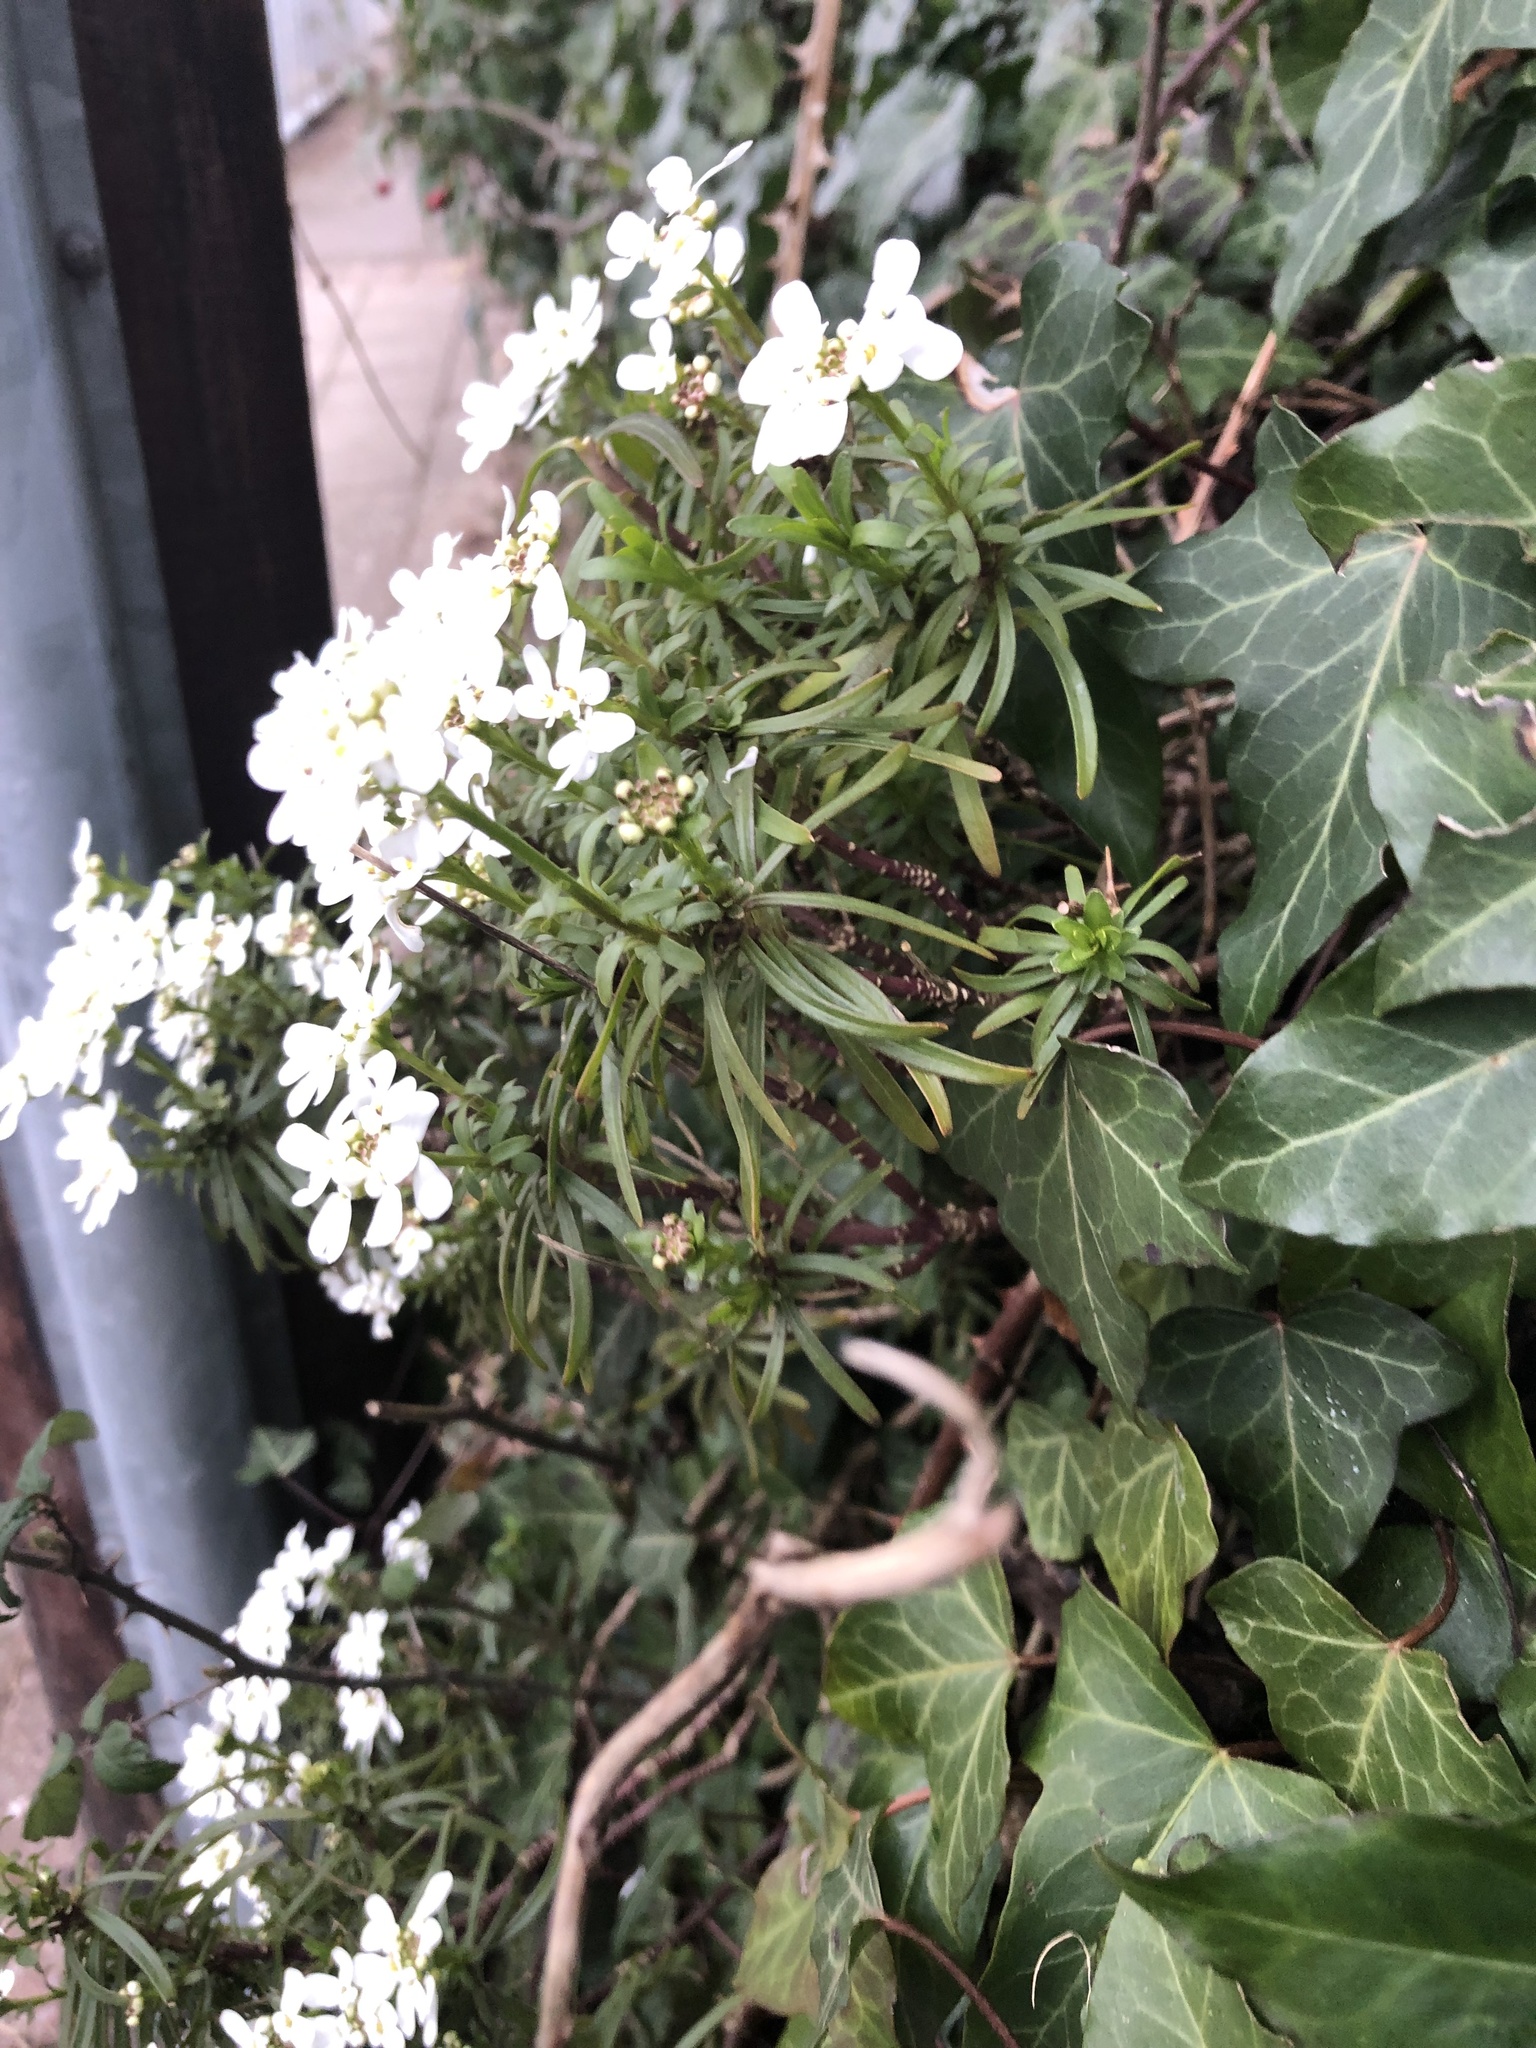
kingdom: Plantae
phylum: Tracheophyta
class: Magnoliopsida
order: Brassicales
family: Brassicaceae
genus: Iberis
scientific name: Iberis sempervirens
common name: Evergreen candytuft
